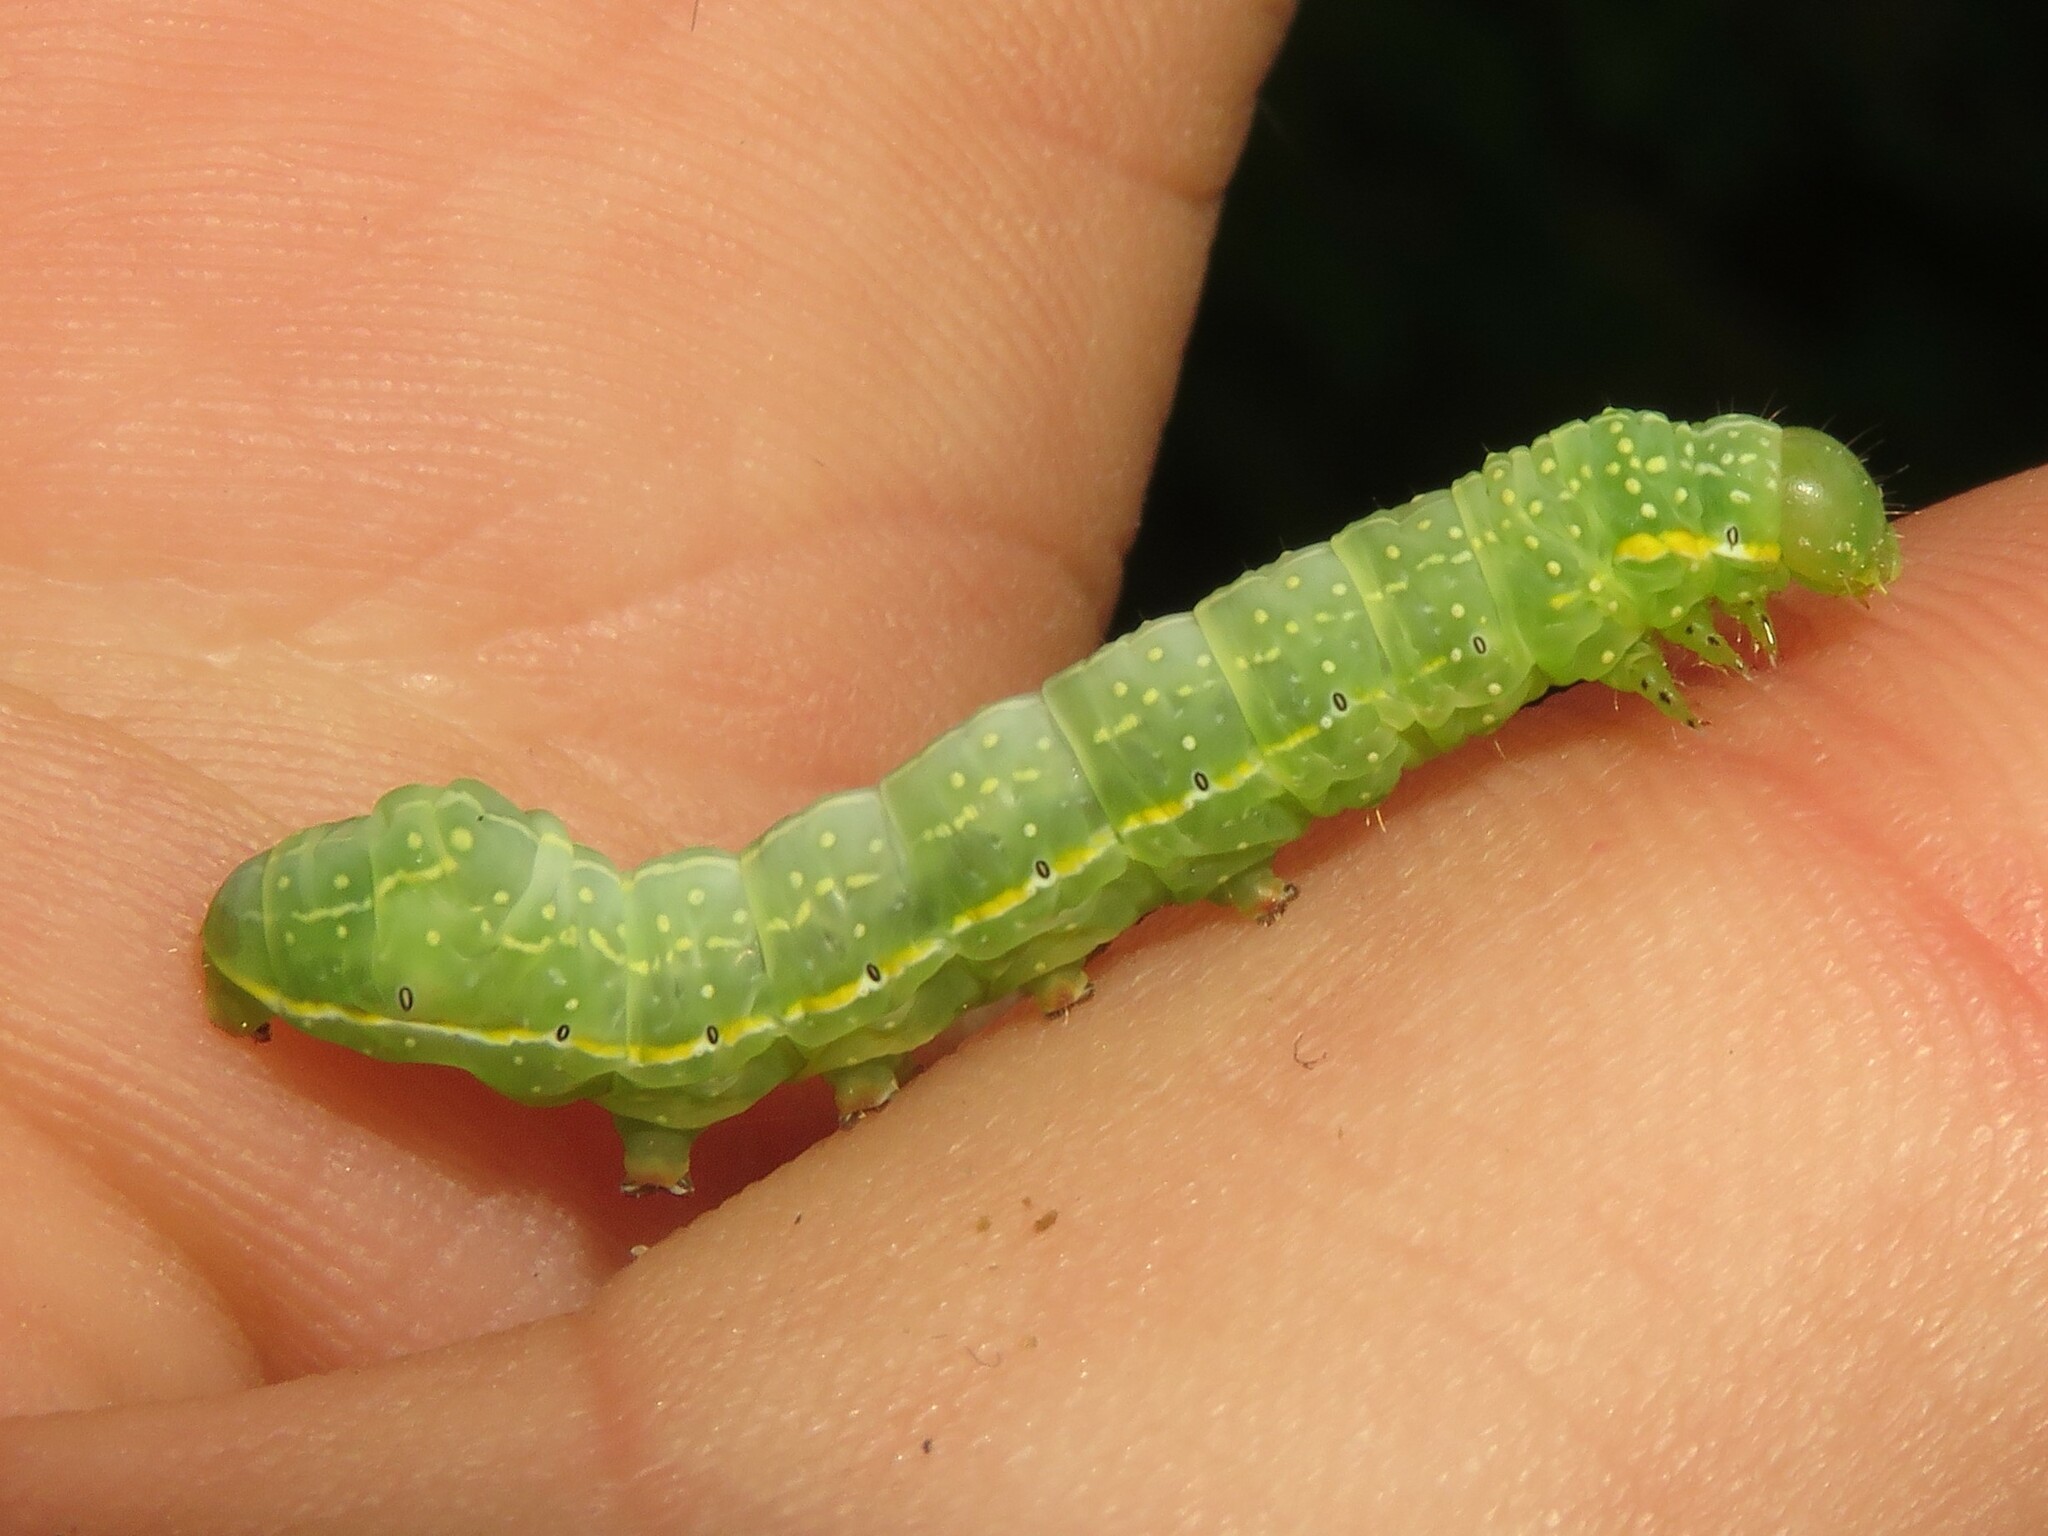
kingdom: Animalia
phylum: Arthropoda
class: Insecta
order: Lepidoptera
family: Noctuidae
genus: Amphipyra
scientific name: Amphipyra pyramidoides
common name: American copper underwing
